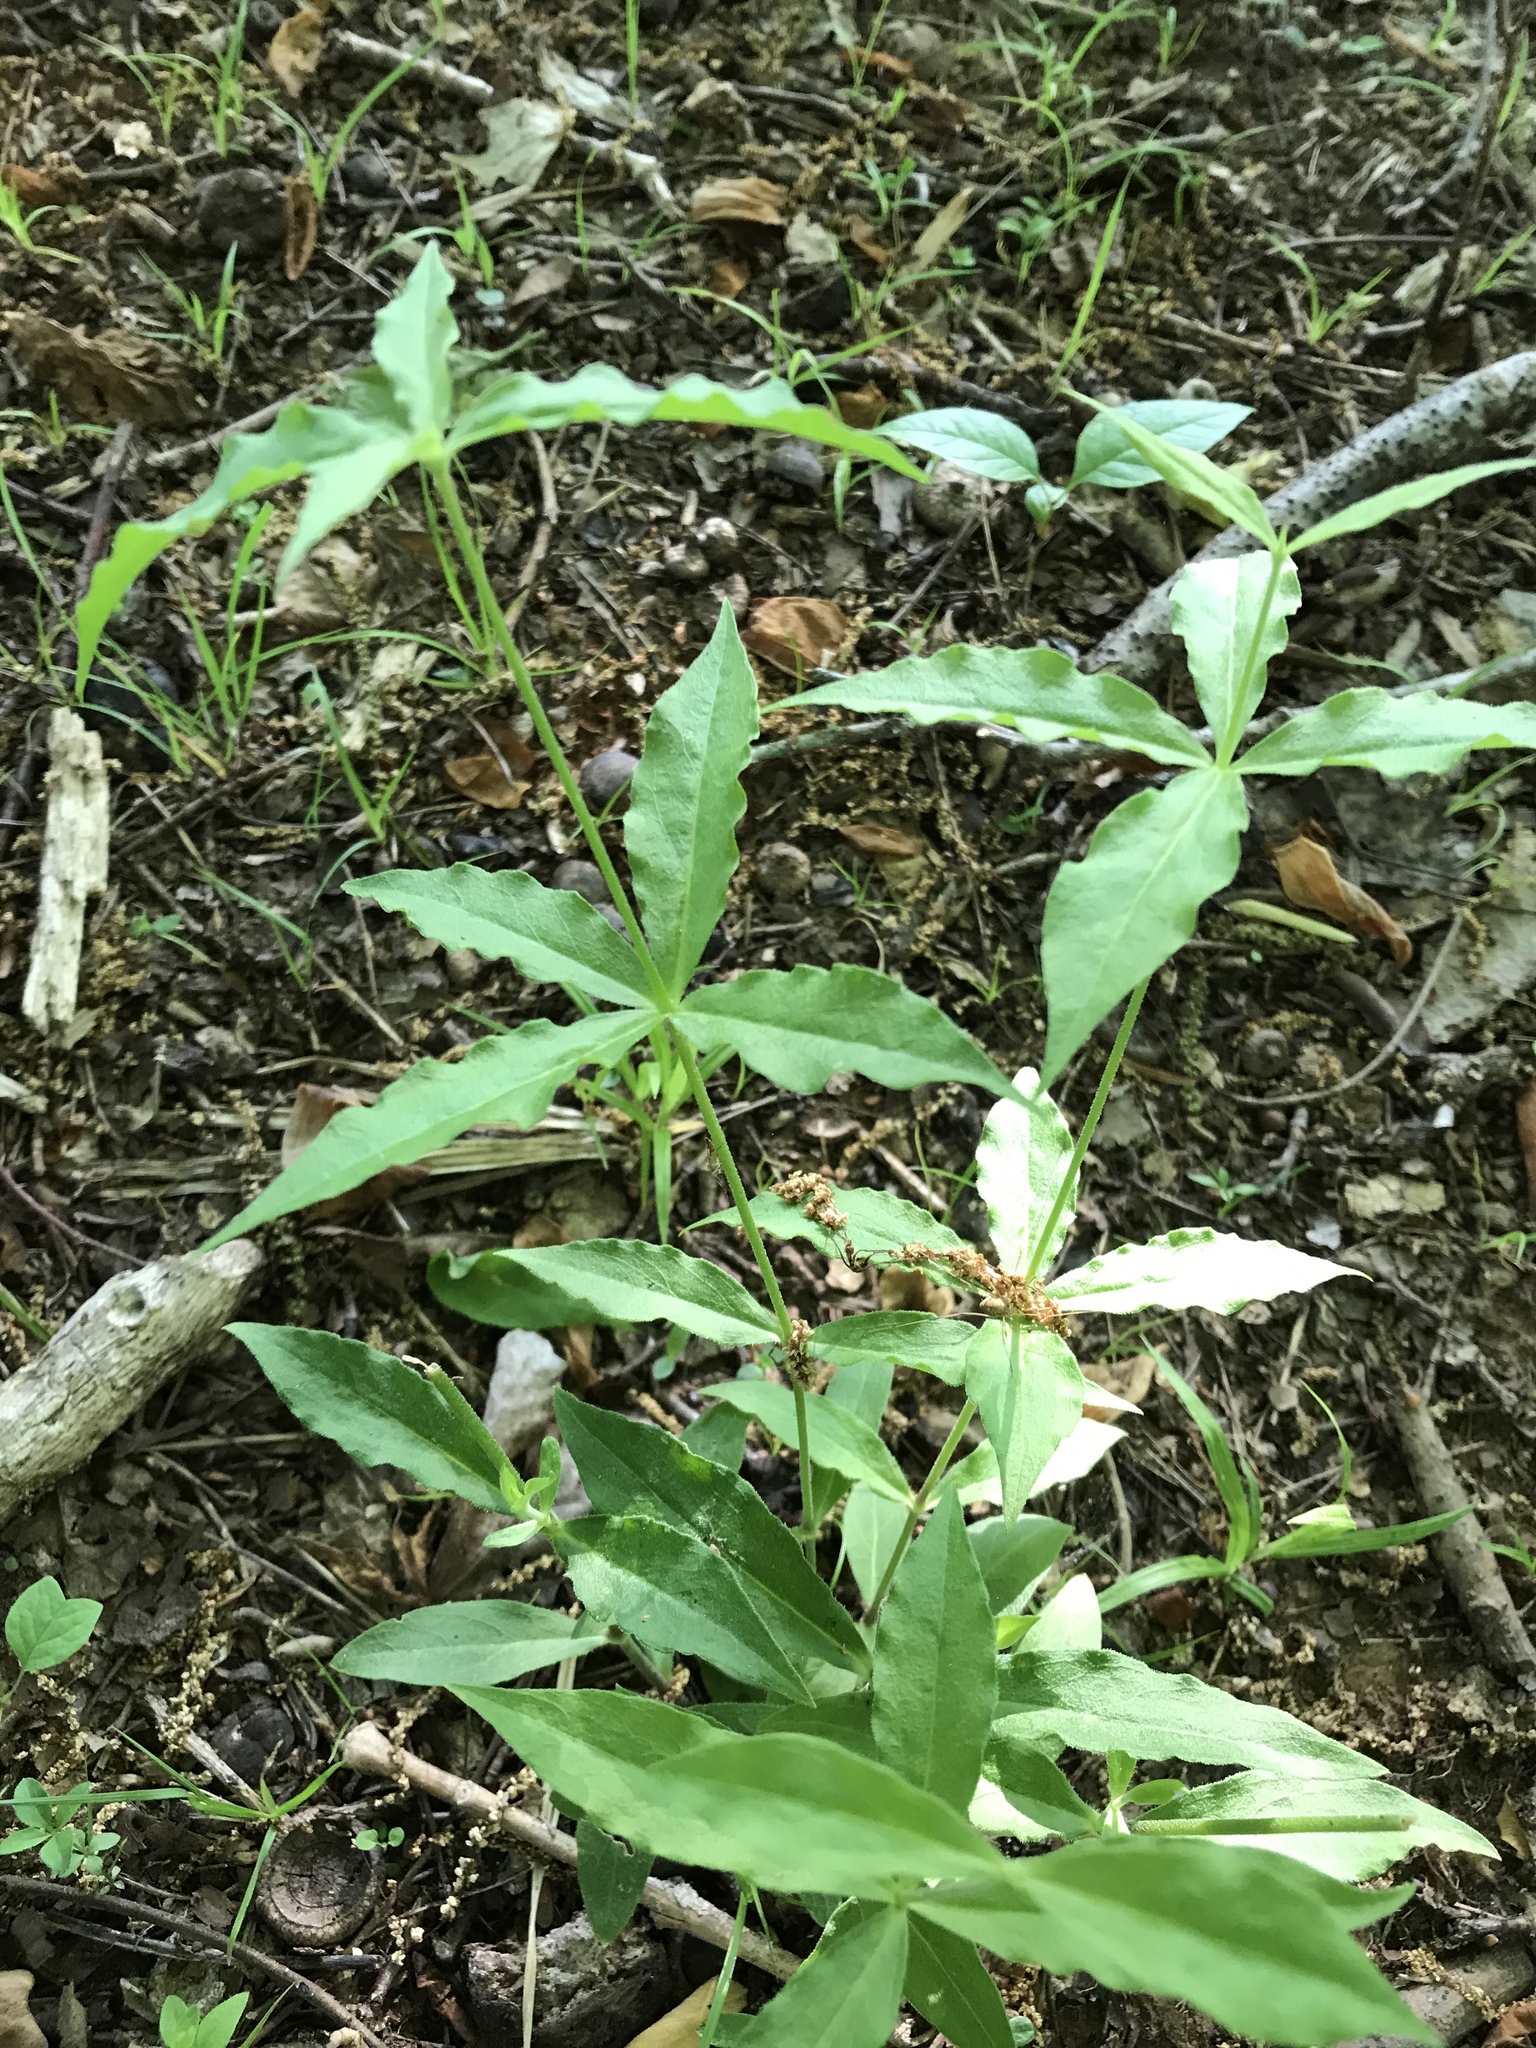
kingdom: Plantae
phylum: Tracheophyta
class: Magnoliopsida
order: Caryophyllales
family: Caryophyllaceae
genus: Silene
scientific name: Silene stellata
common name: Starry campion
